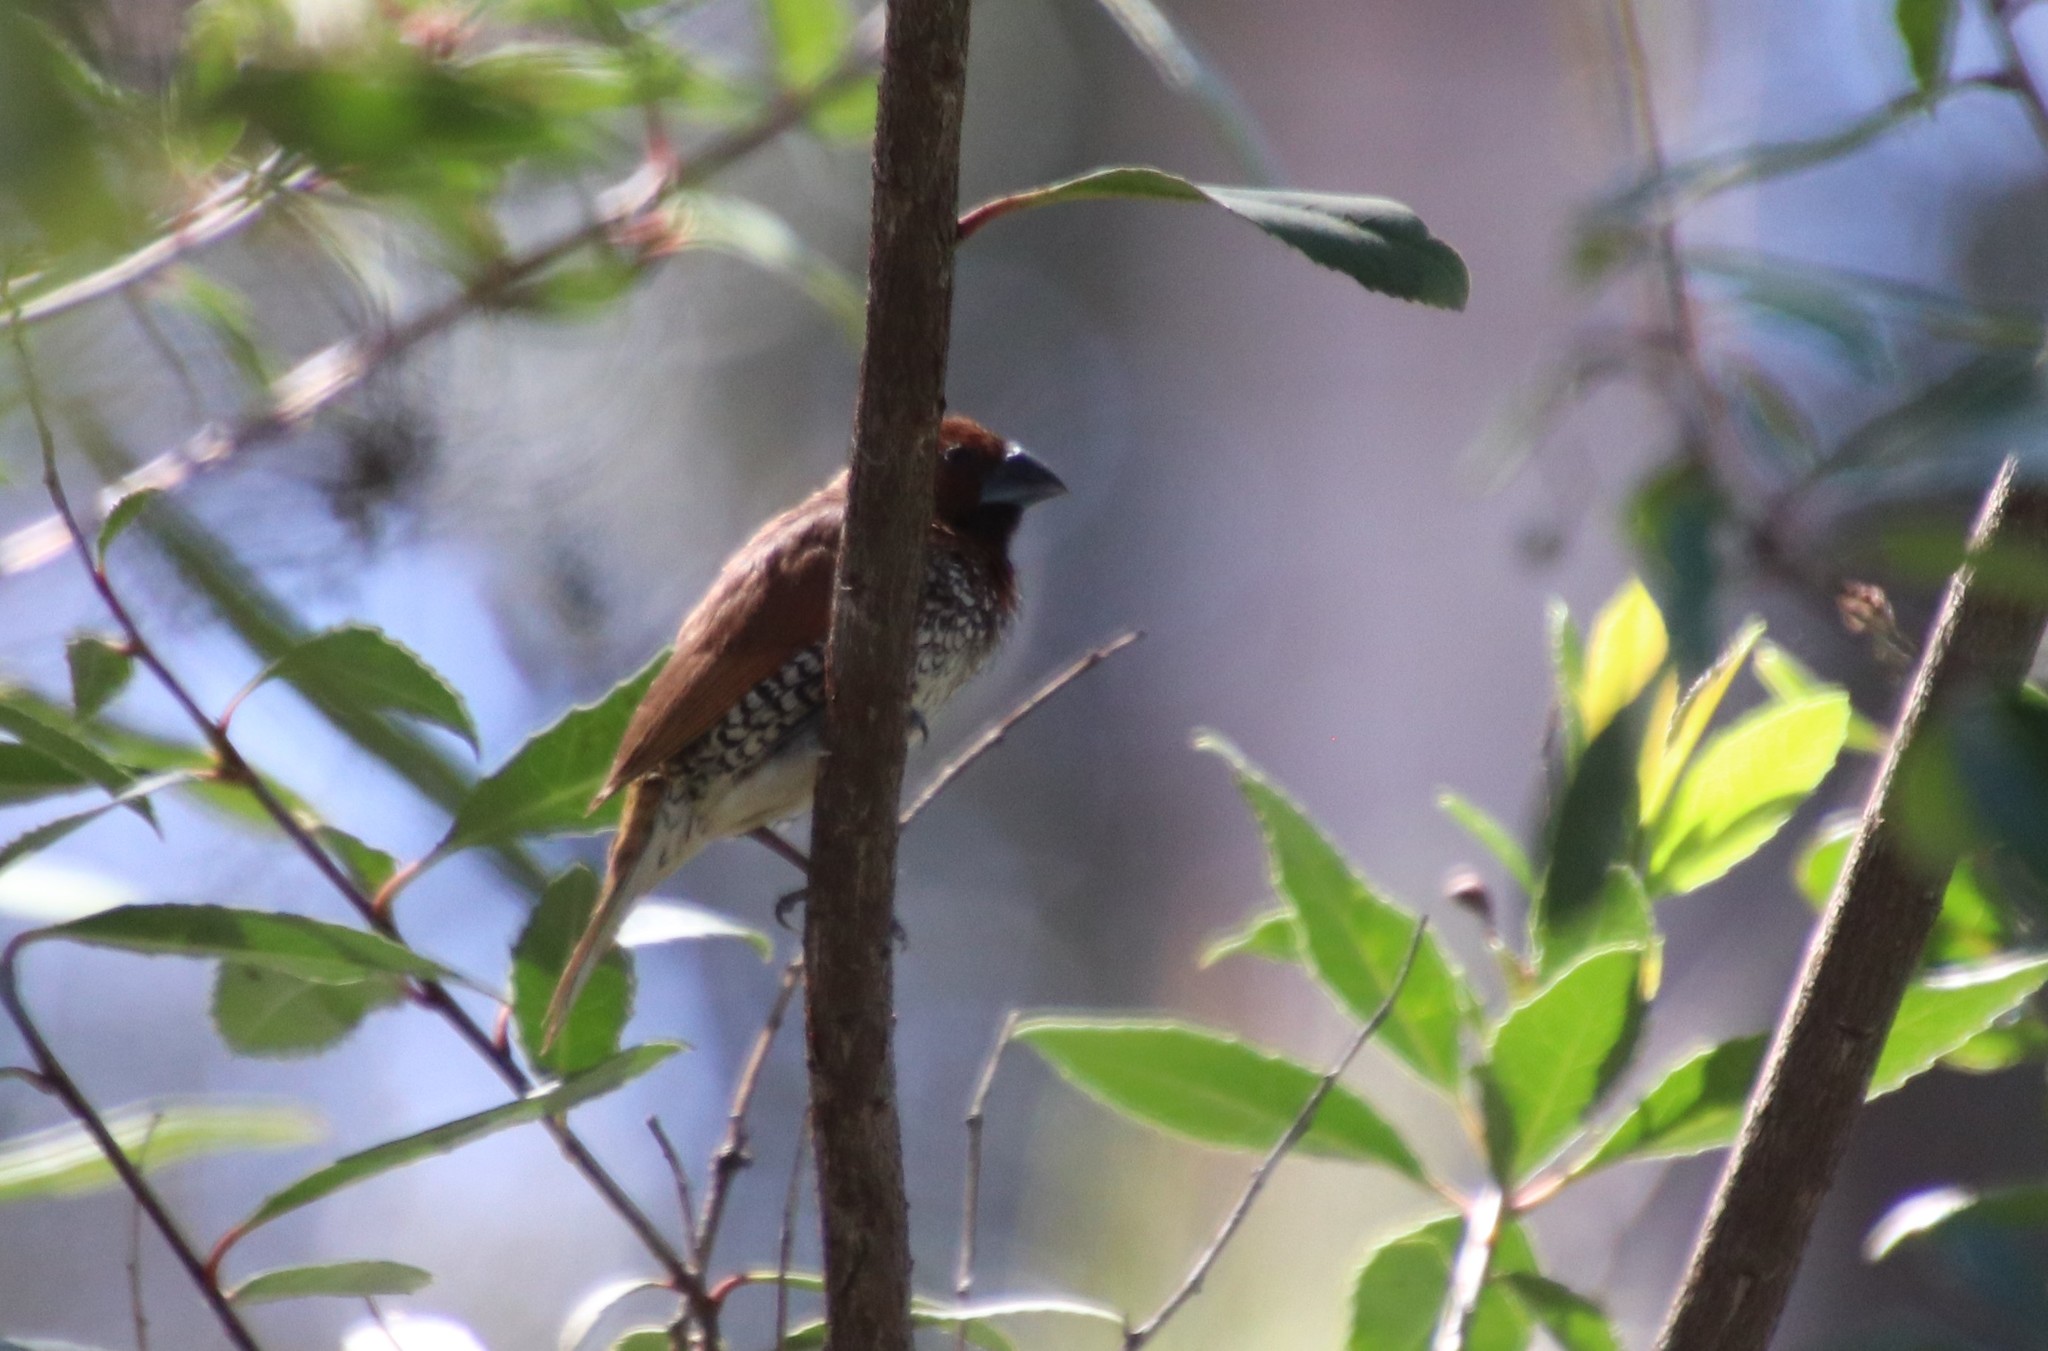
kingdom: Animalia
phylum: Chordata
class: Aves
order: Passeriformes
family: Estrildidae
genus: Lonchura
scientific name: Lonchura punctulata
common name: Scaly-breasted munia
